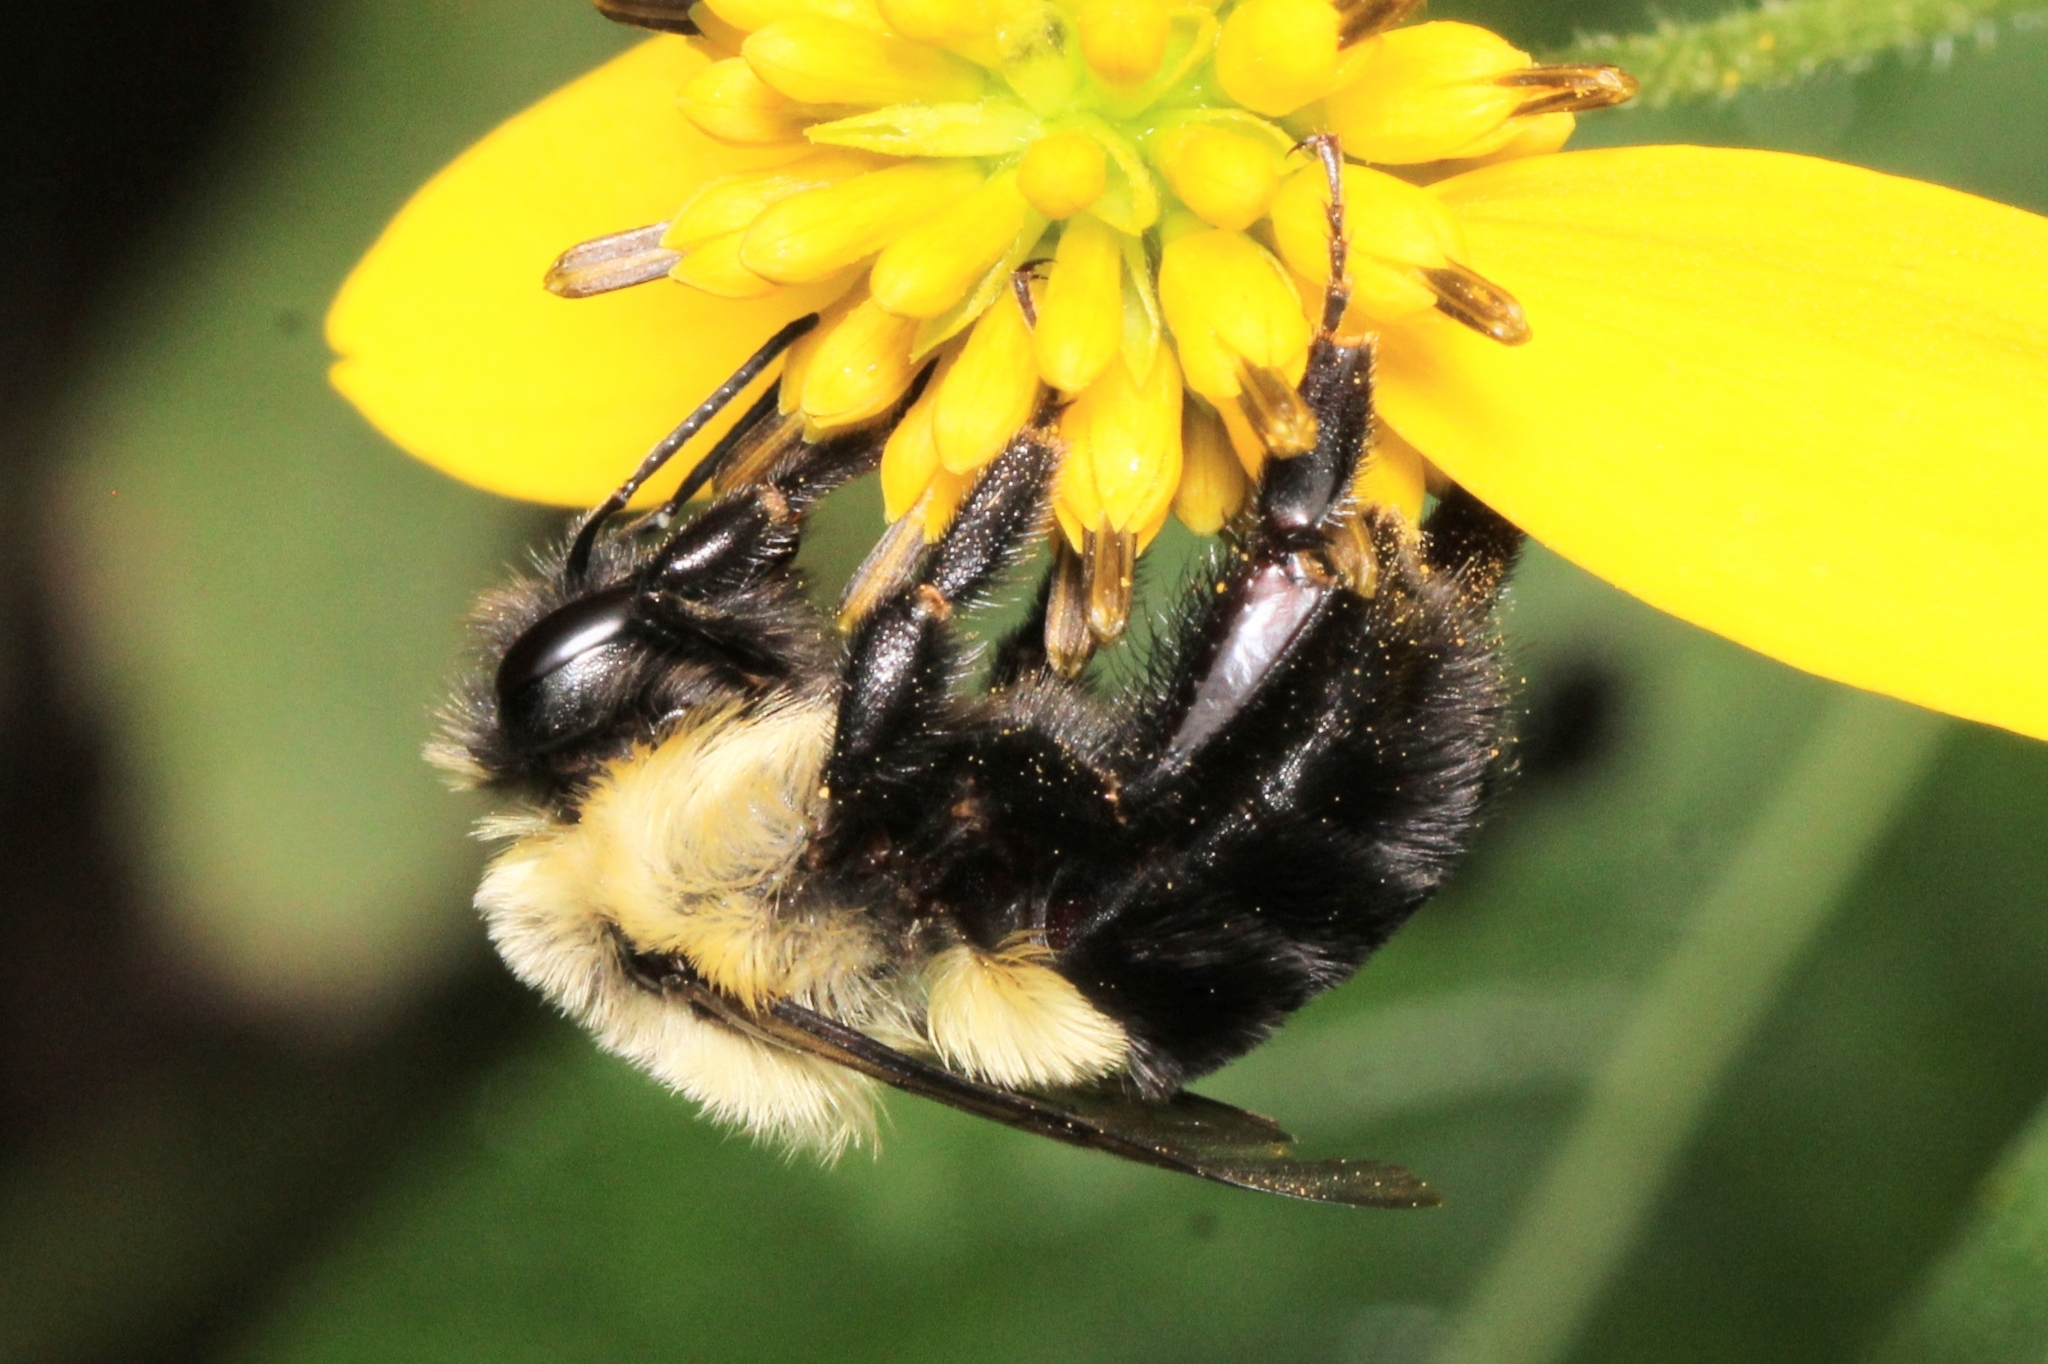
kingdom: Animalia
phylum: Arthropoda
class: Insecta
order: Hymenoptera
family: Apidae
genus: Bombus
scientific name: Bombus impatiens
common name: Common eastern bumble bee
